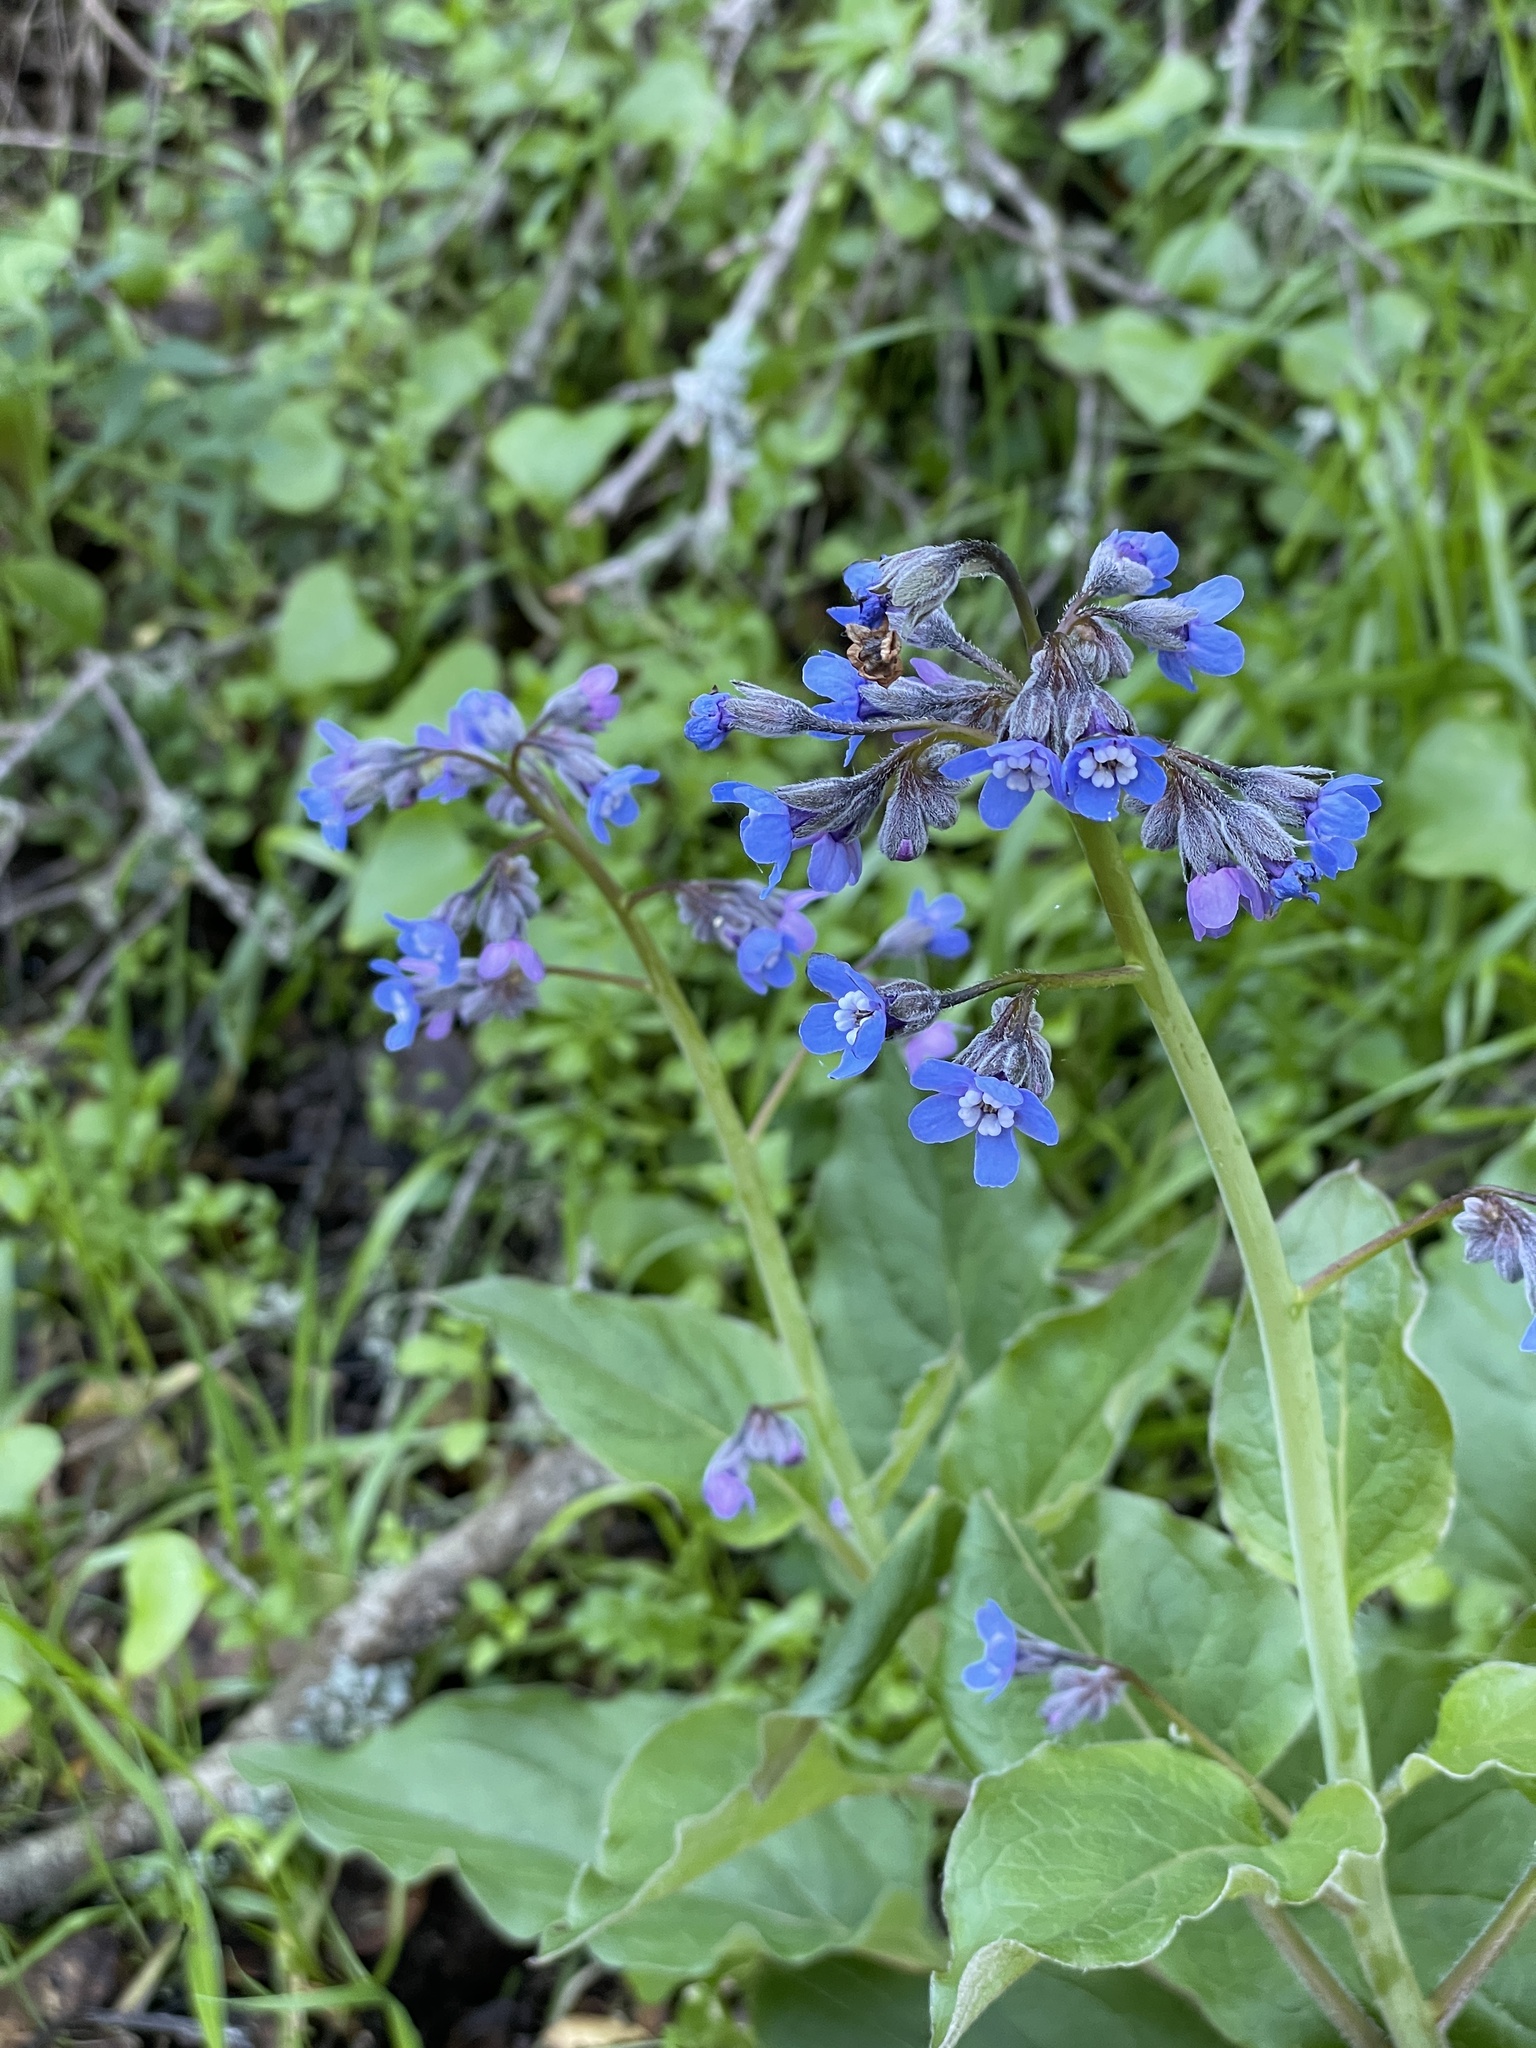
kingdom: Plantae
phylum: Tracheophyta
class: Magnoliopsida
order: Boraginales
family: Boraginaceae
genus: Adelinia
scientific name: Adelinia grande
